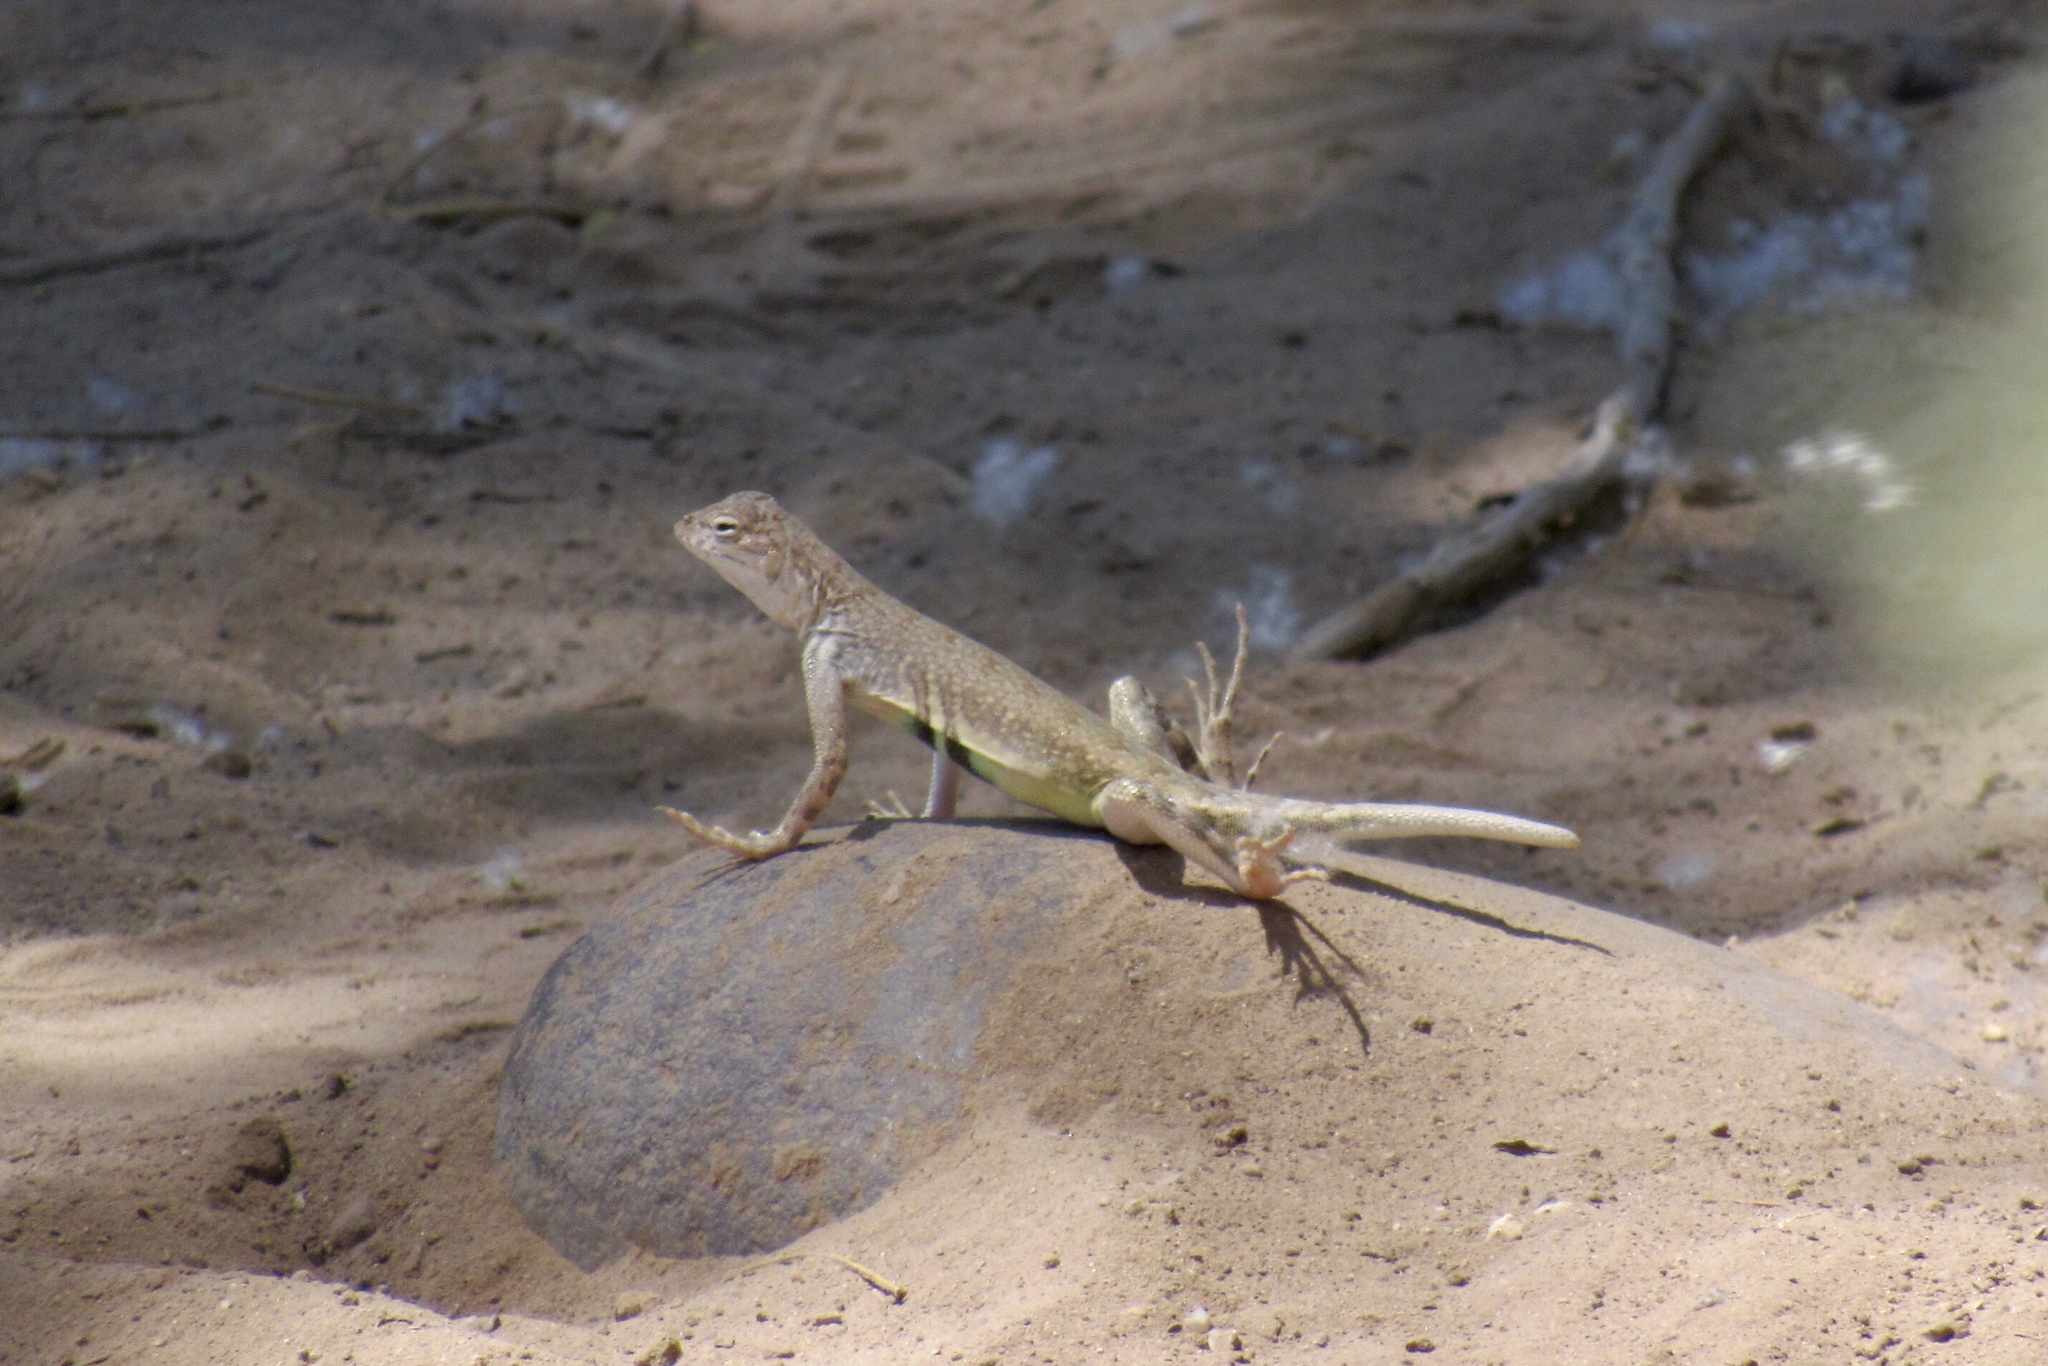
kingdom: Animalia
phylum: Chordata
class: Squamata
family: Phrynosomatidae
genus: Callisaurus
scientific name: Callisaurus draconoides
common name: Zebra-tailed lizard
